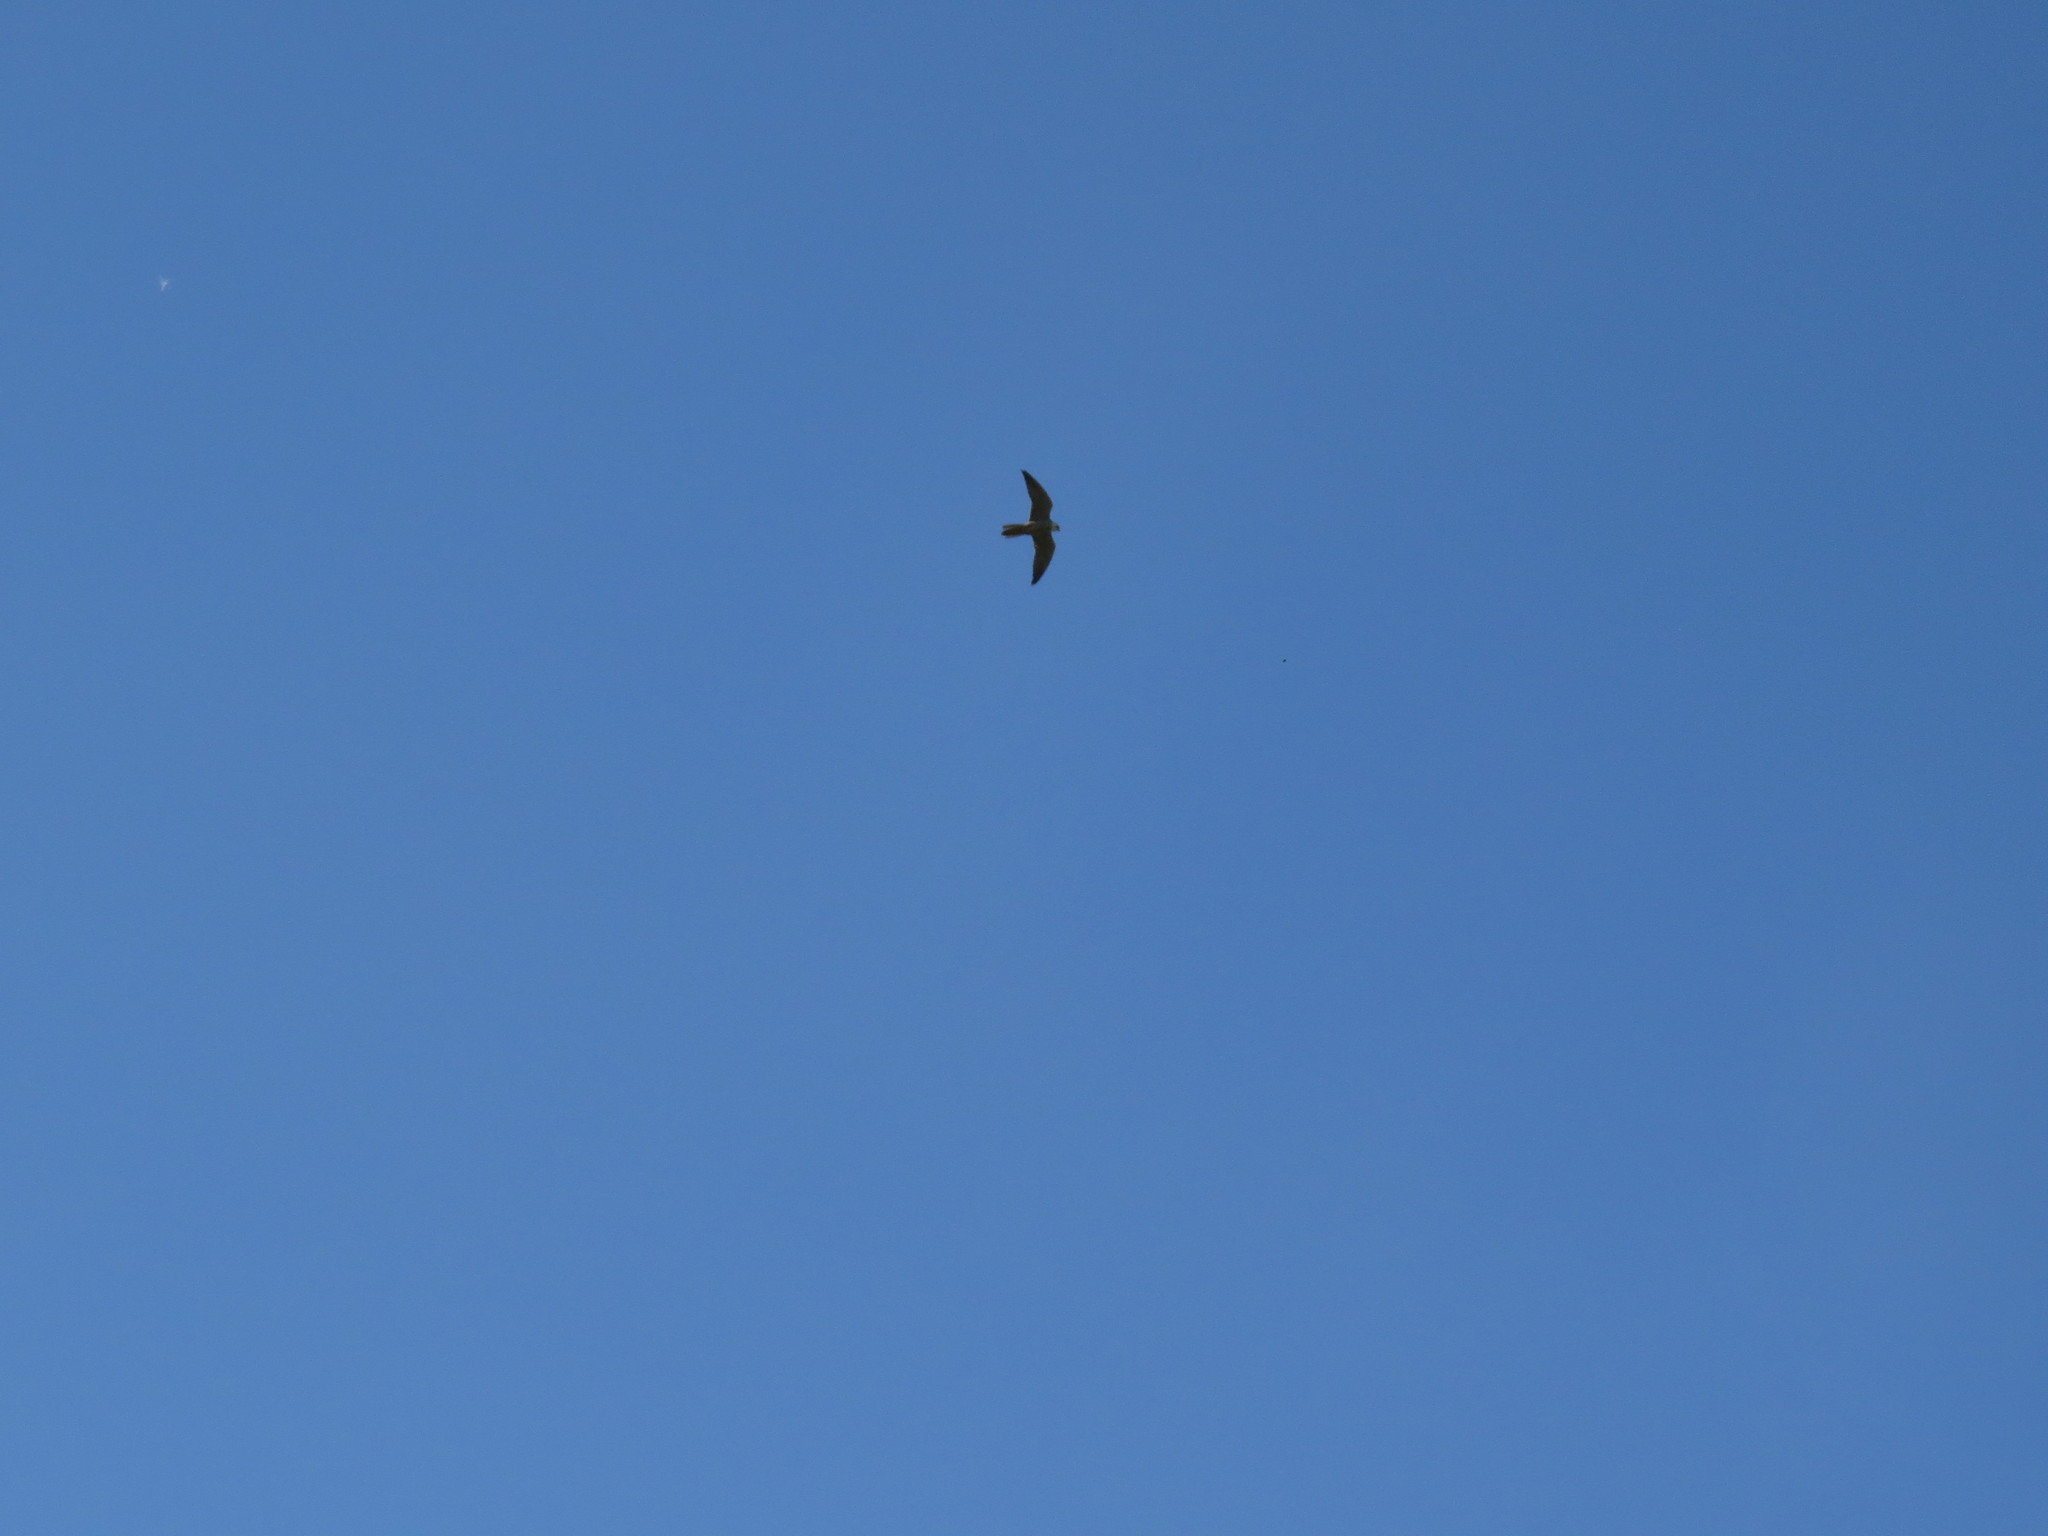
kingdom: Animalia
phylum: Chordata
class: Aves
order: Falconiformes
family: Falconidae
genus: Falco
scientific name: Falco subbuteo
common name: Eurasian hobby
